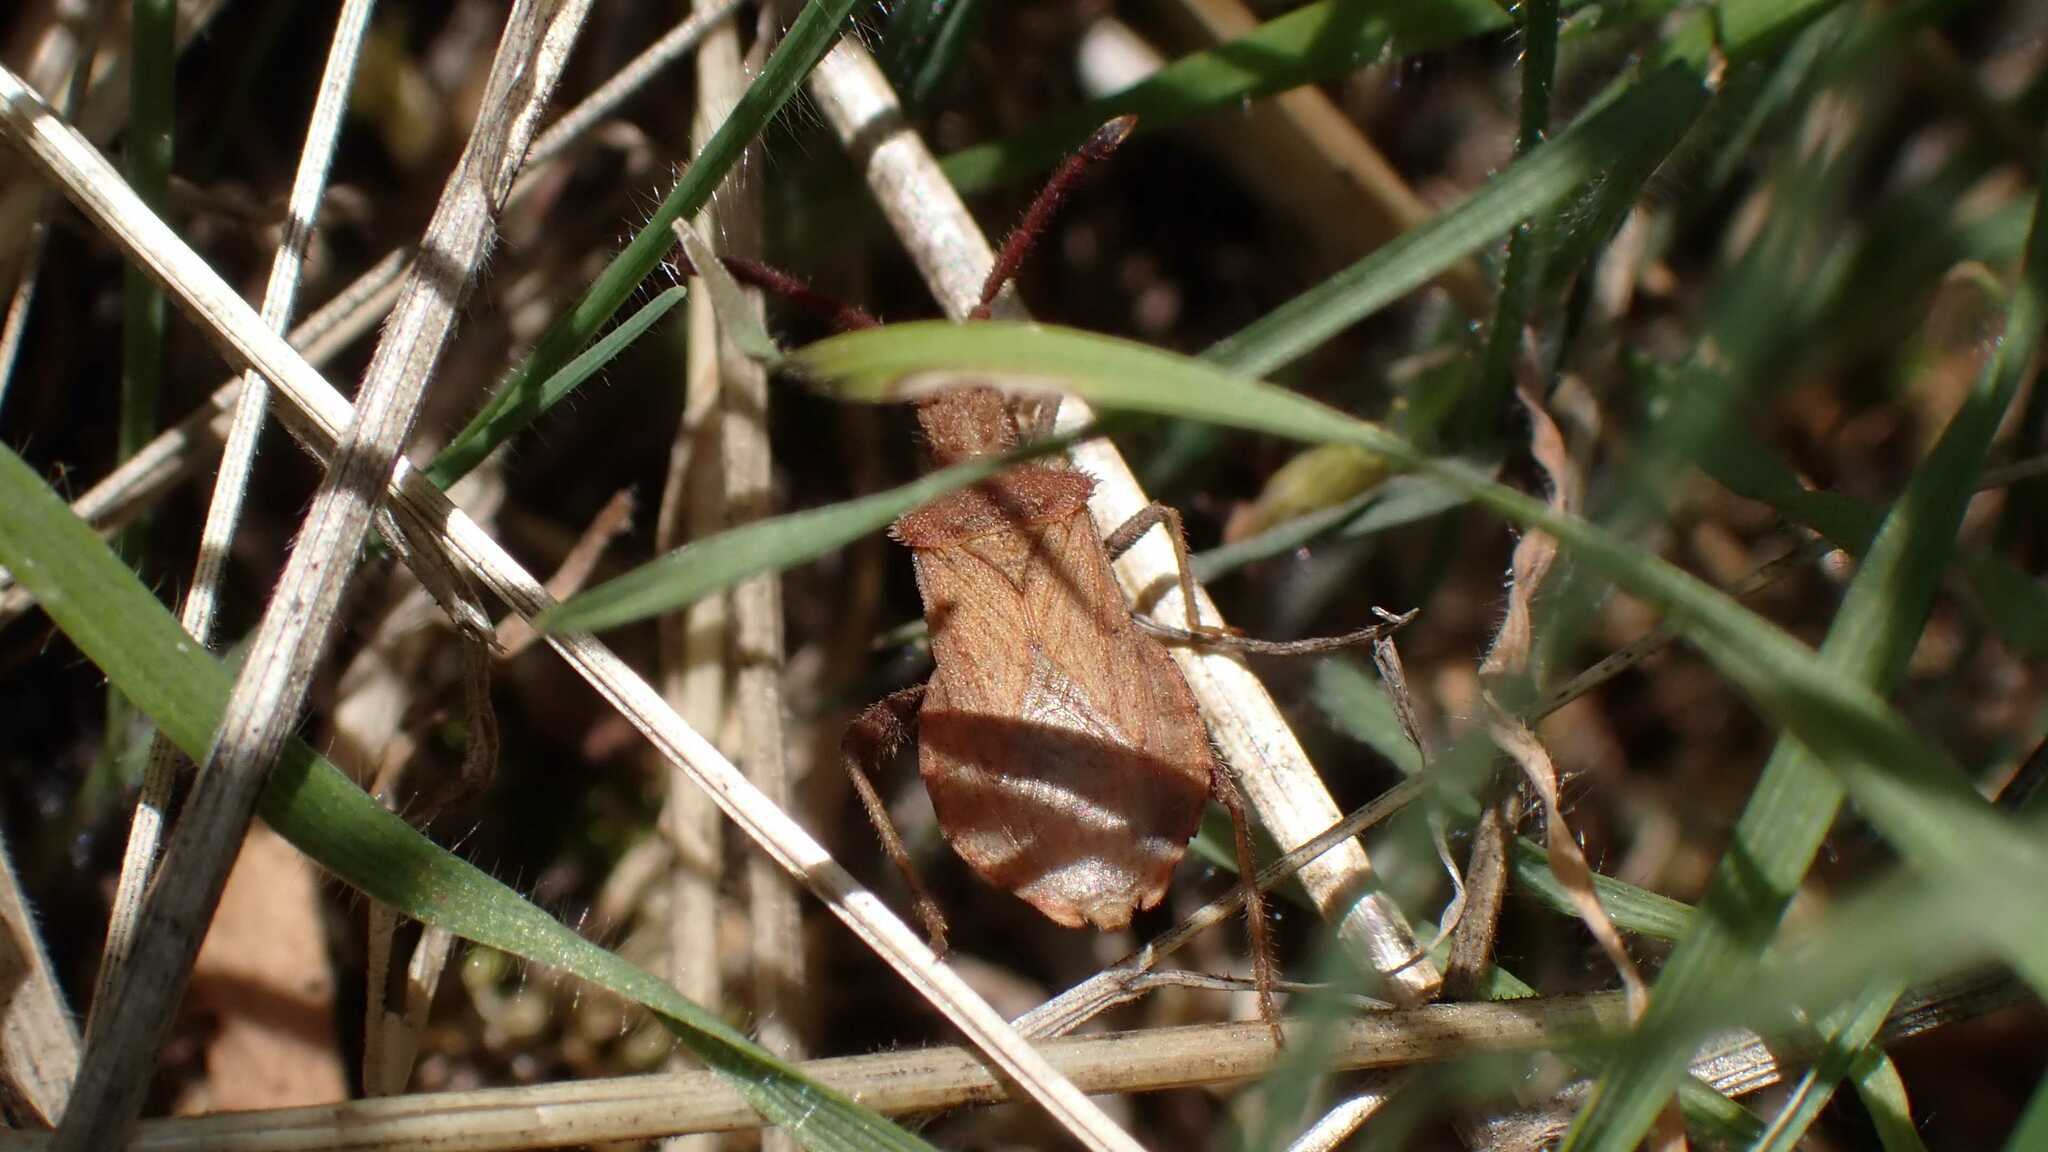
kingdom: Animalia
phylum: Arthropoda
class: Insecta
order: Hemiptera
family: Coreidae
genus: Coriomeris
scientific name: Coriomeris denticulatus
